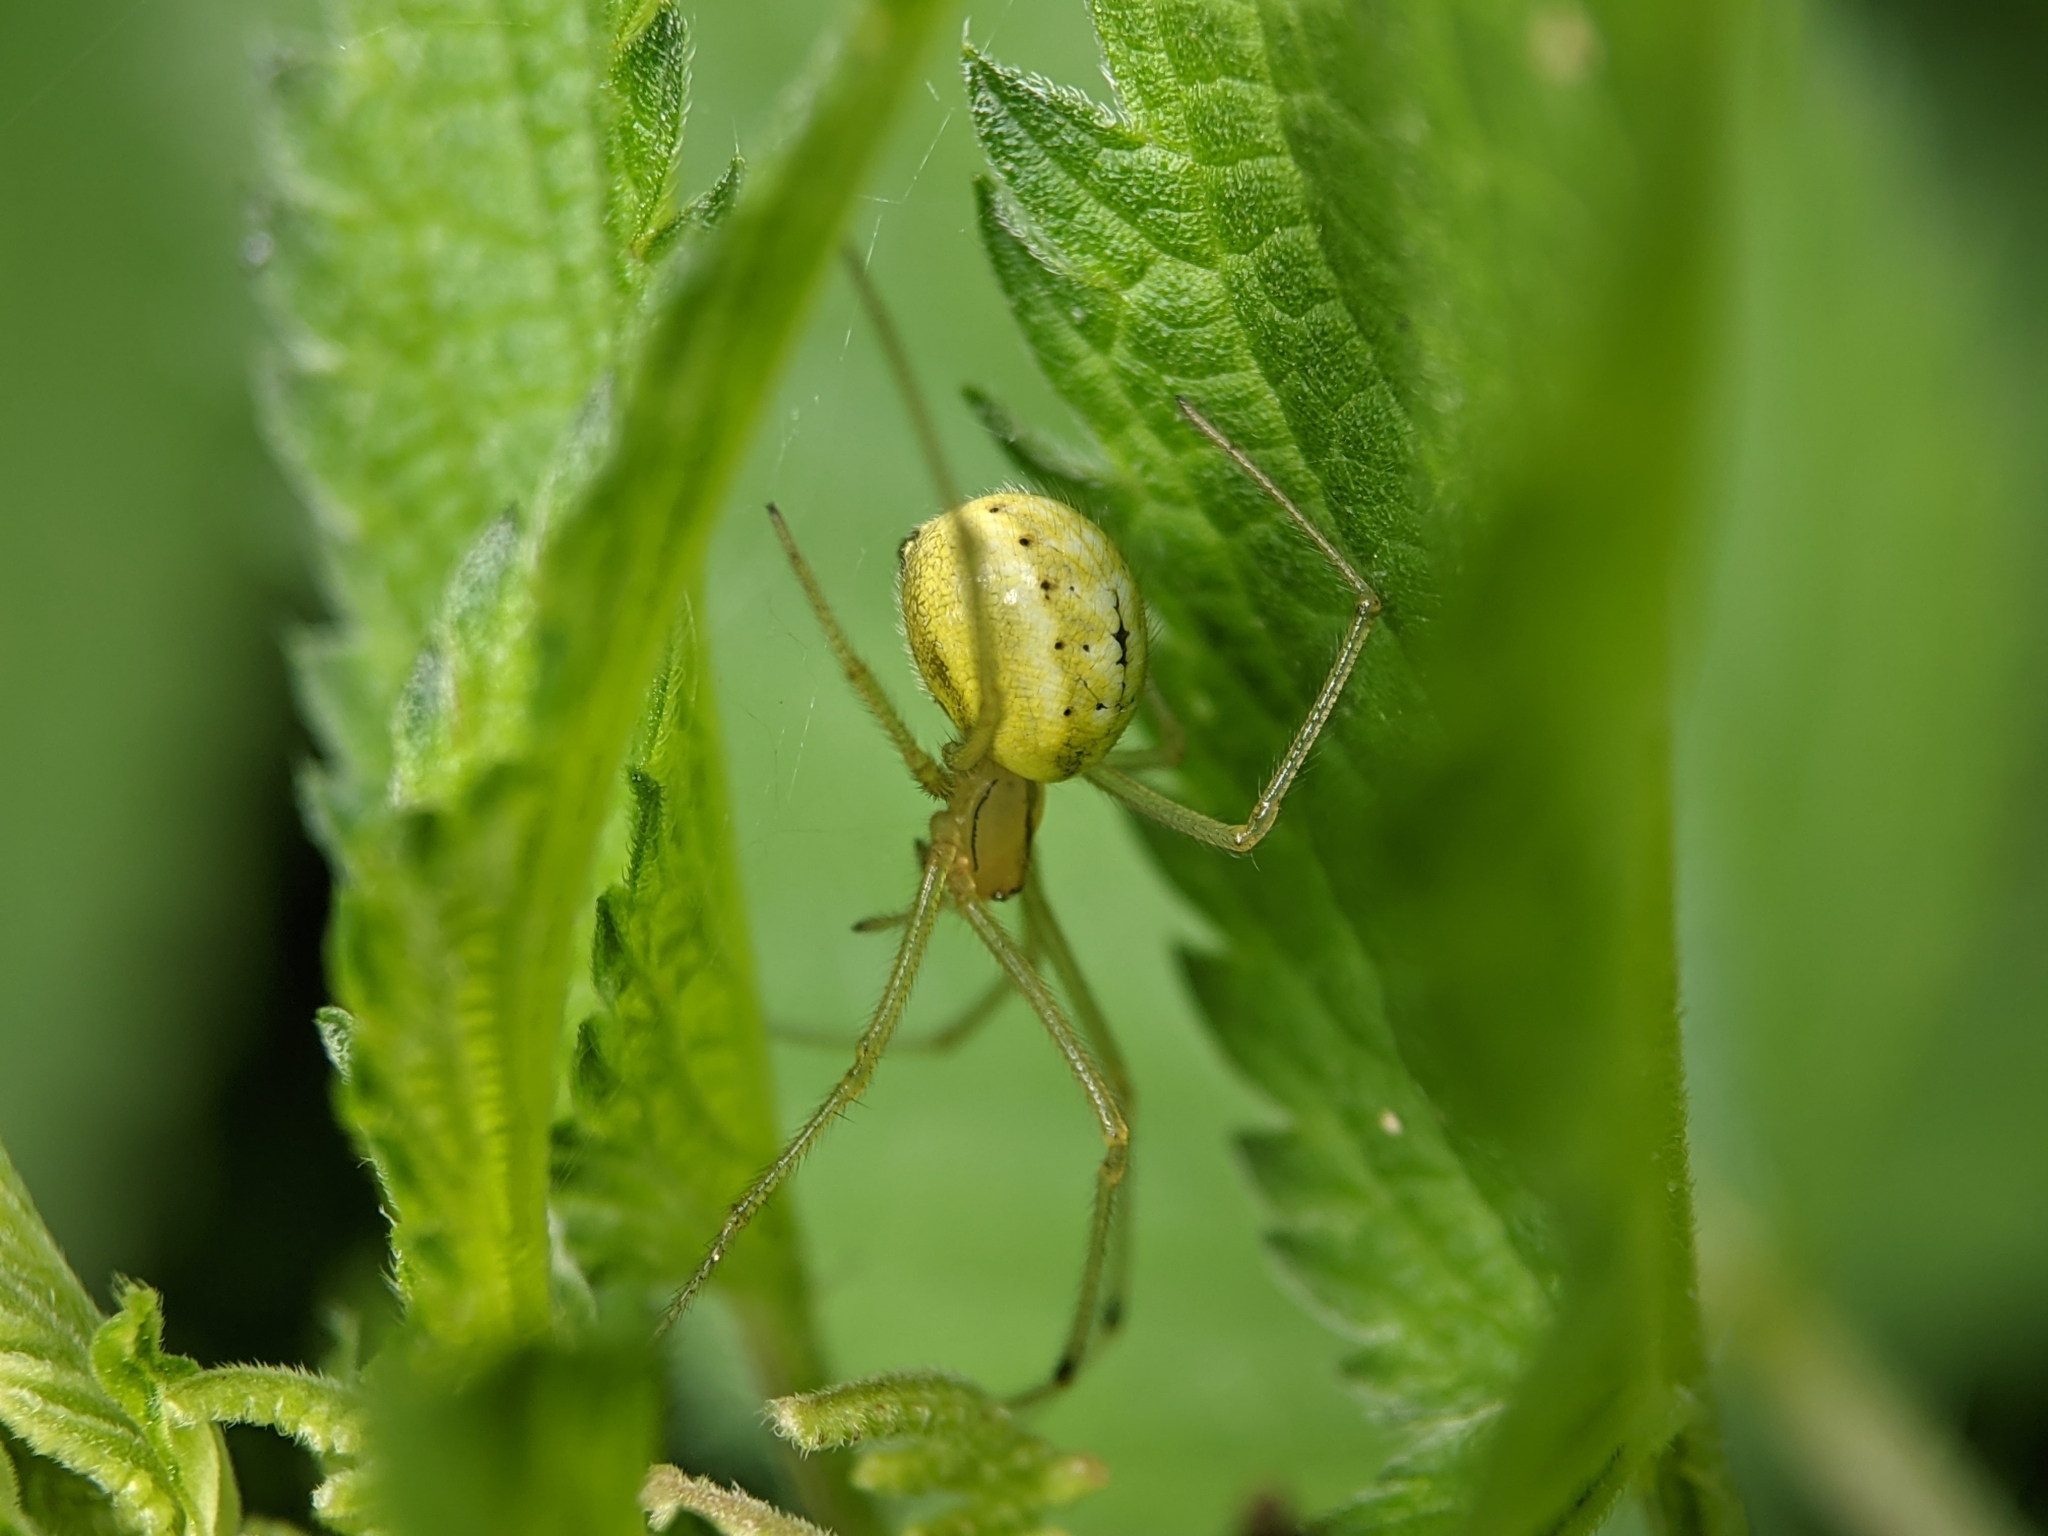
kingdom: Animalia
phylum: Arthropoda
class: Arachnida
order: Araneae
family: Theridiidae
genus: Enoplognatha
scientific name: Enoplognatha ovata
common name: Common candy-striped spider
